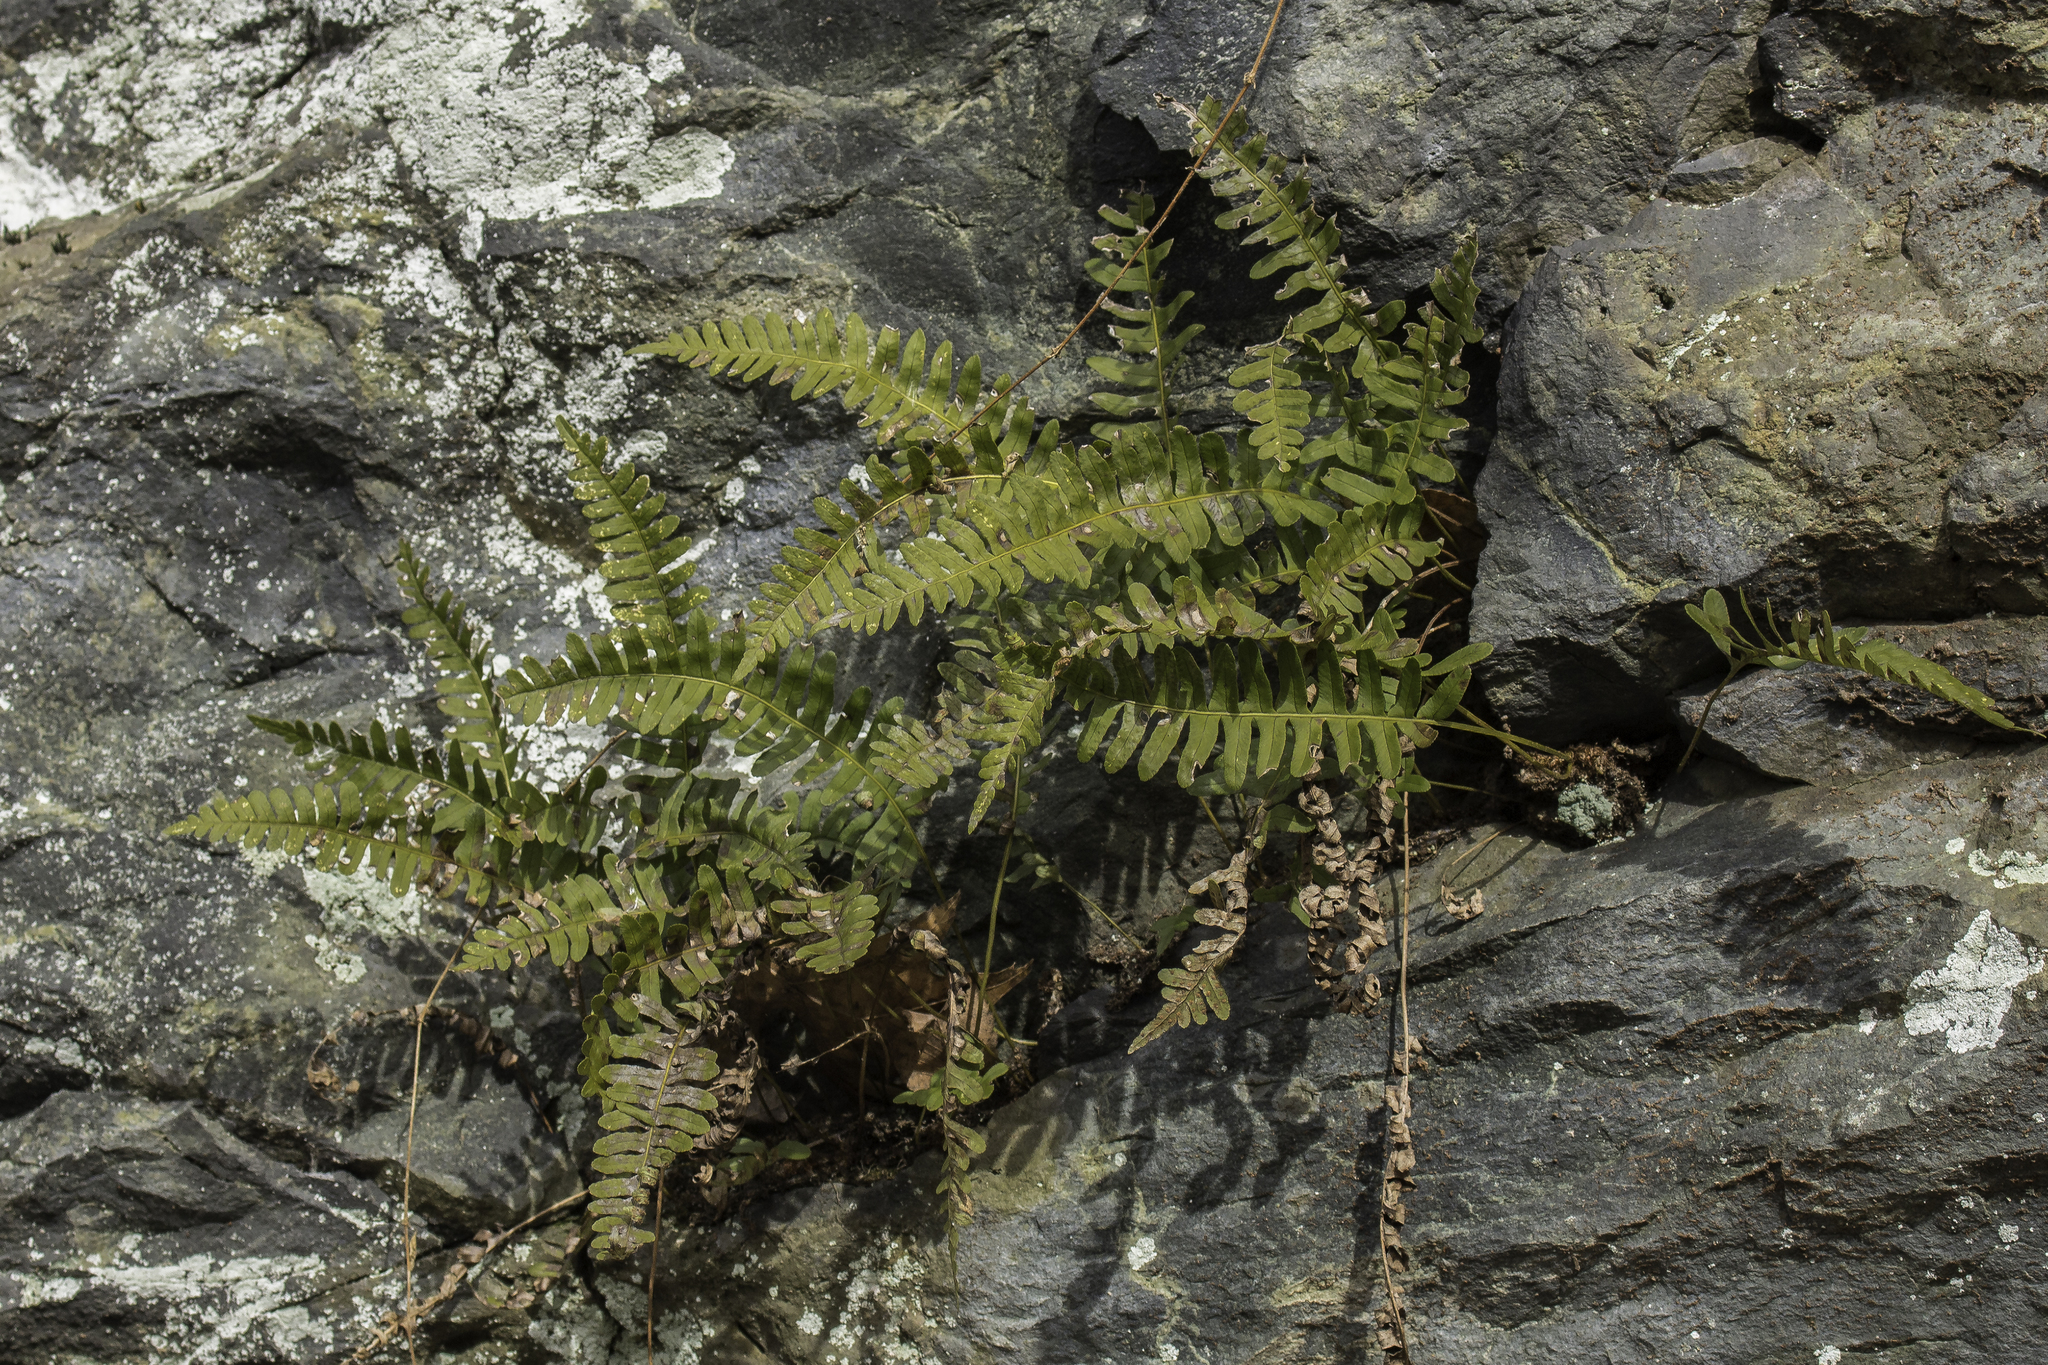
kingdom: Plantae
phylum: Tracheophyta
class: Polypodiopsida
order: Polypodiales
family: Polypodiaceae
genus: Polypodium
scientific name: Polypodium virginianum
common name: American wall fern
